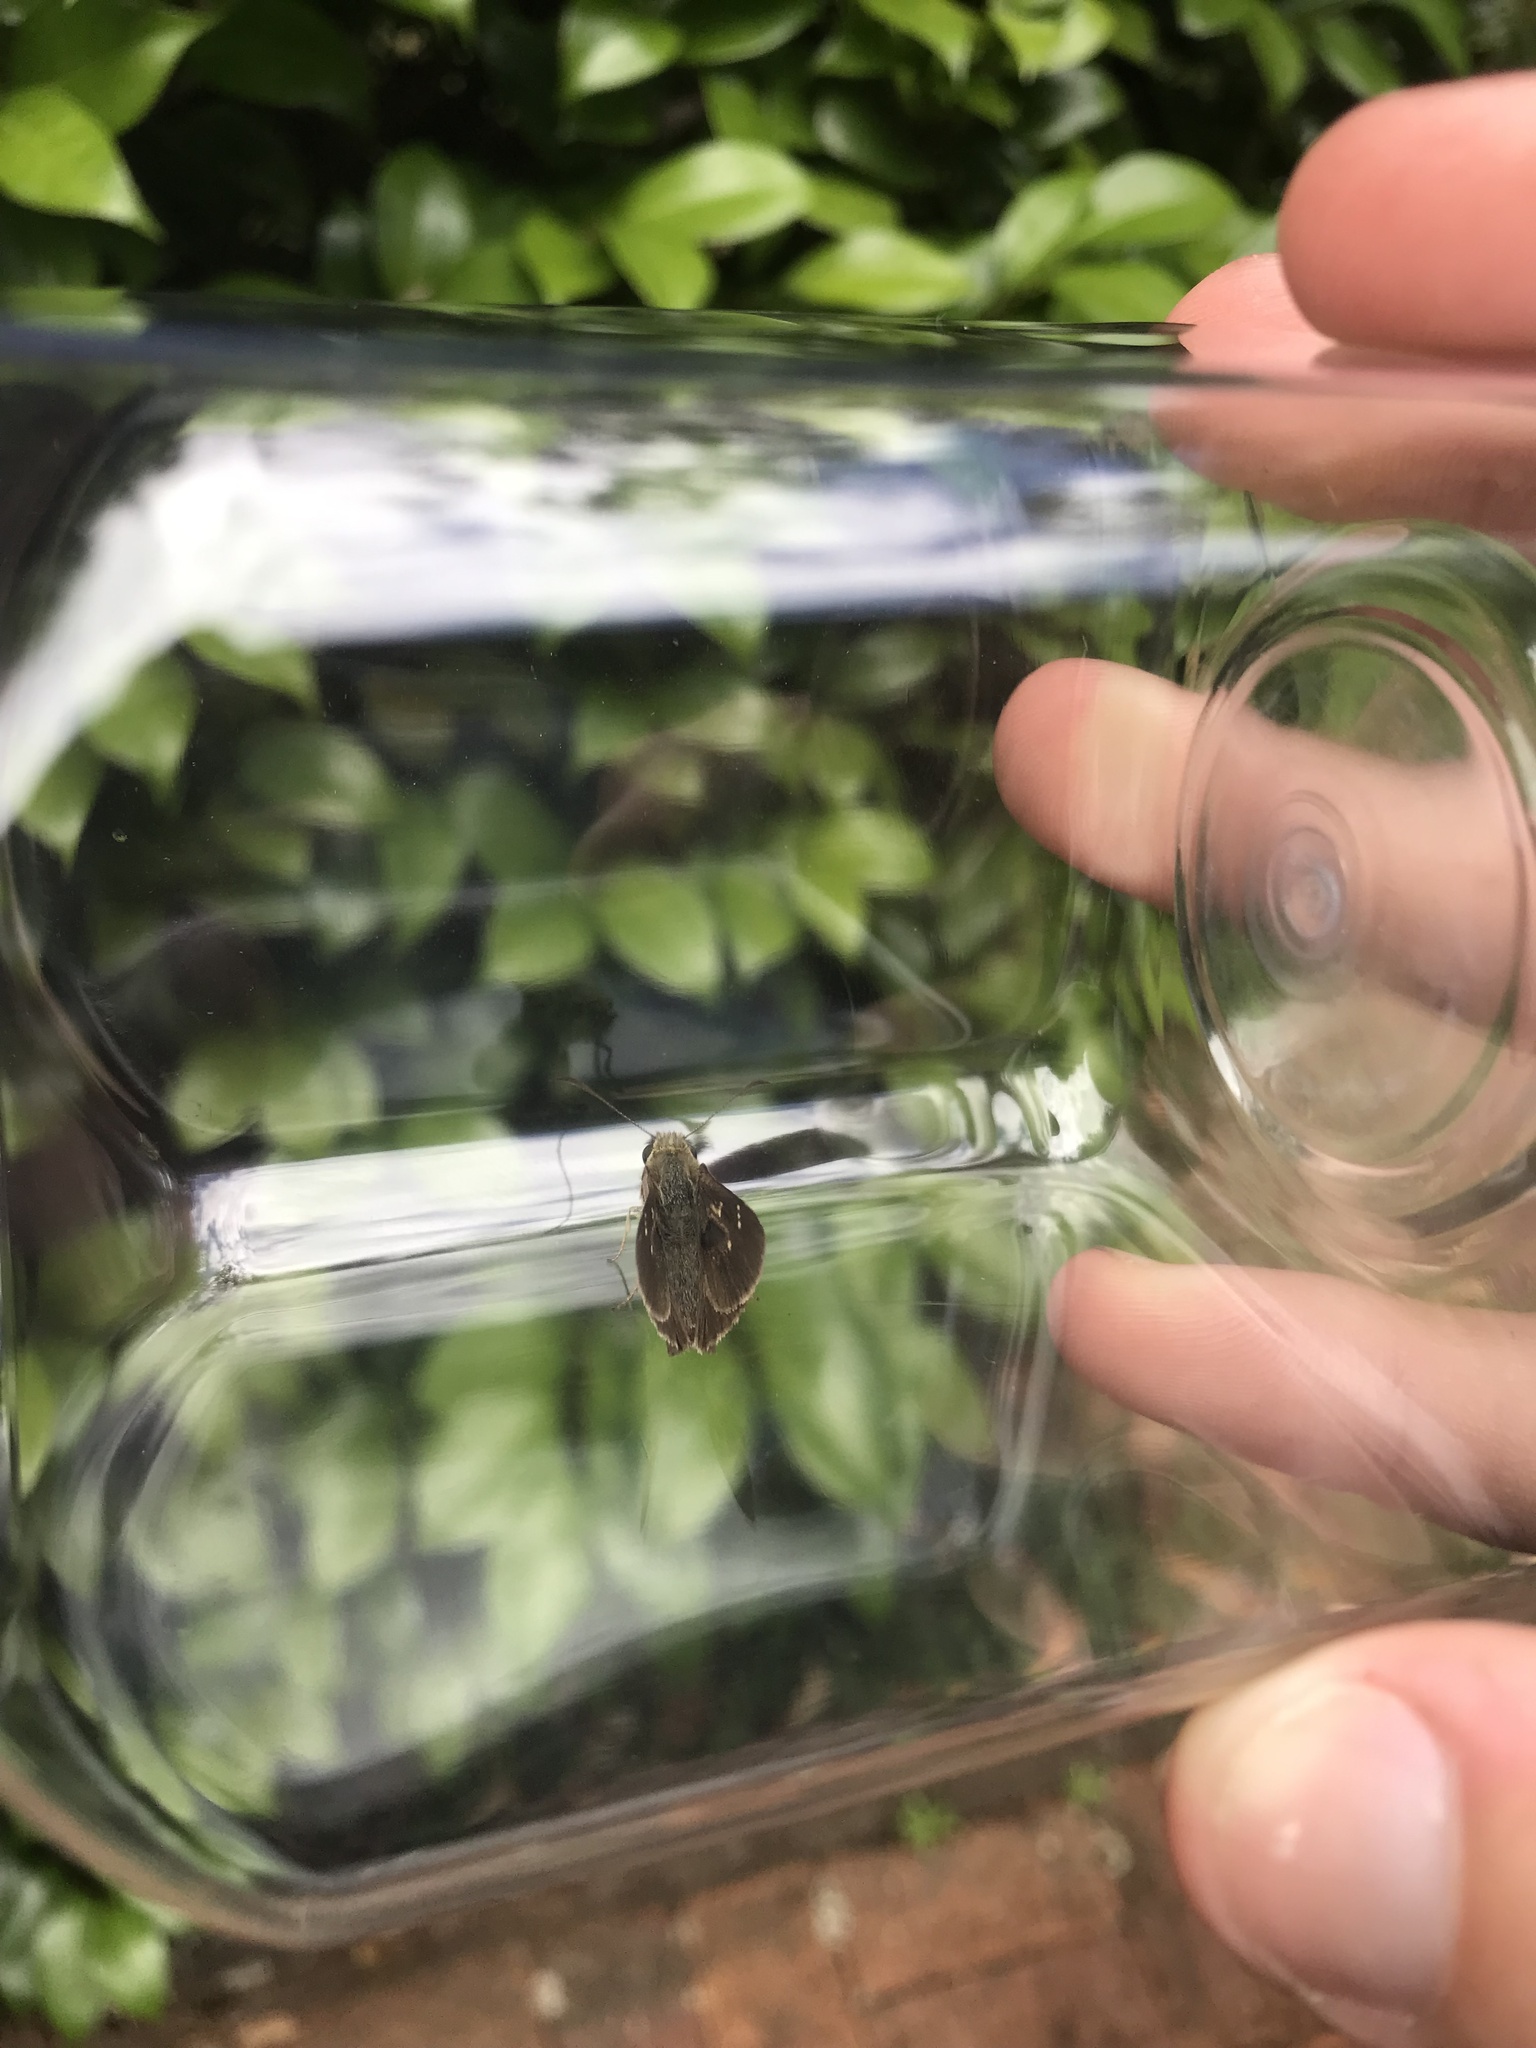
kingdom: Animalia
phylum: Arthropoda
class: Insecta
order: Lepidoptera
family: Hesperiidae
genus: Toxidia
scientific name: Toxidia
